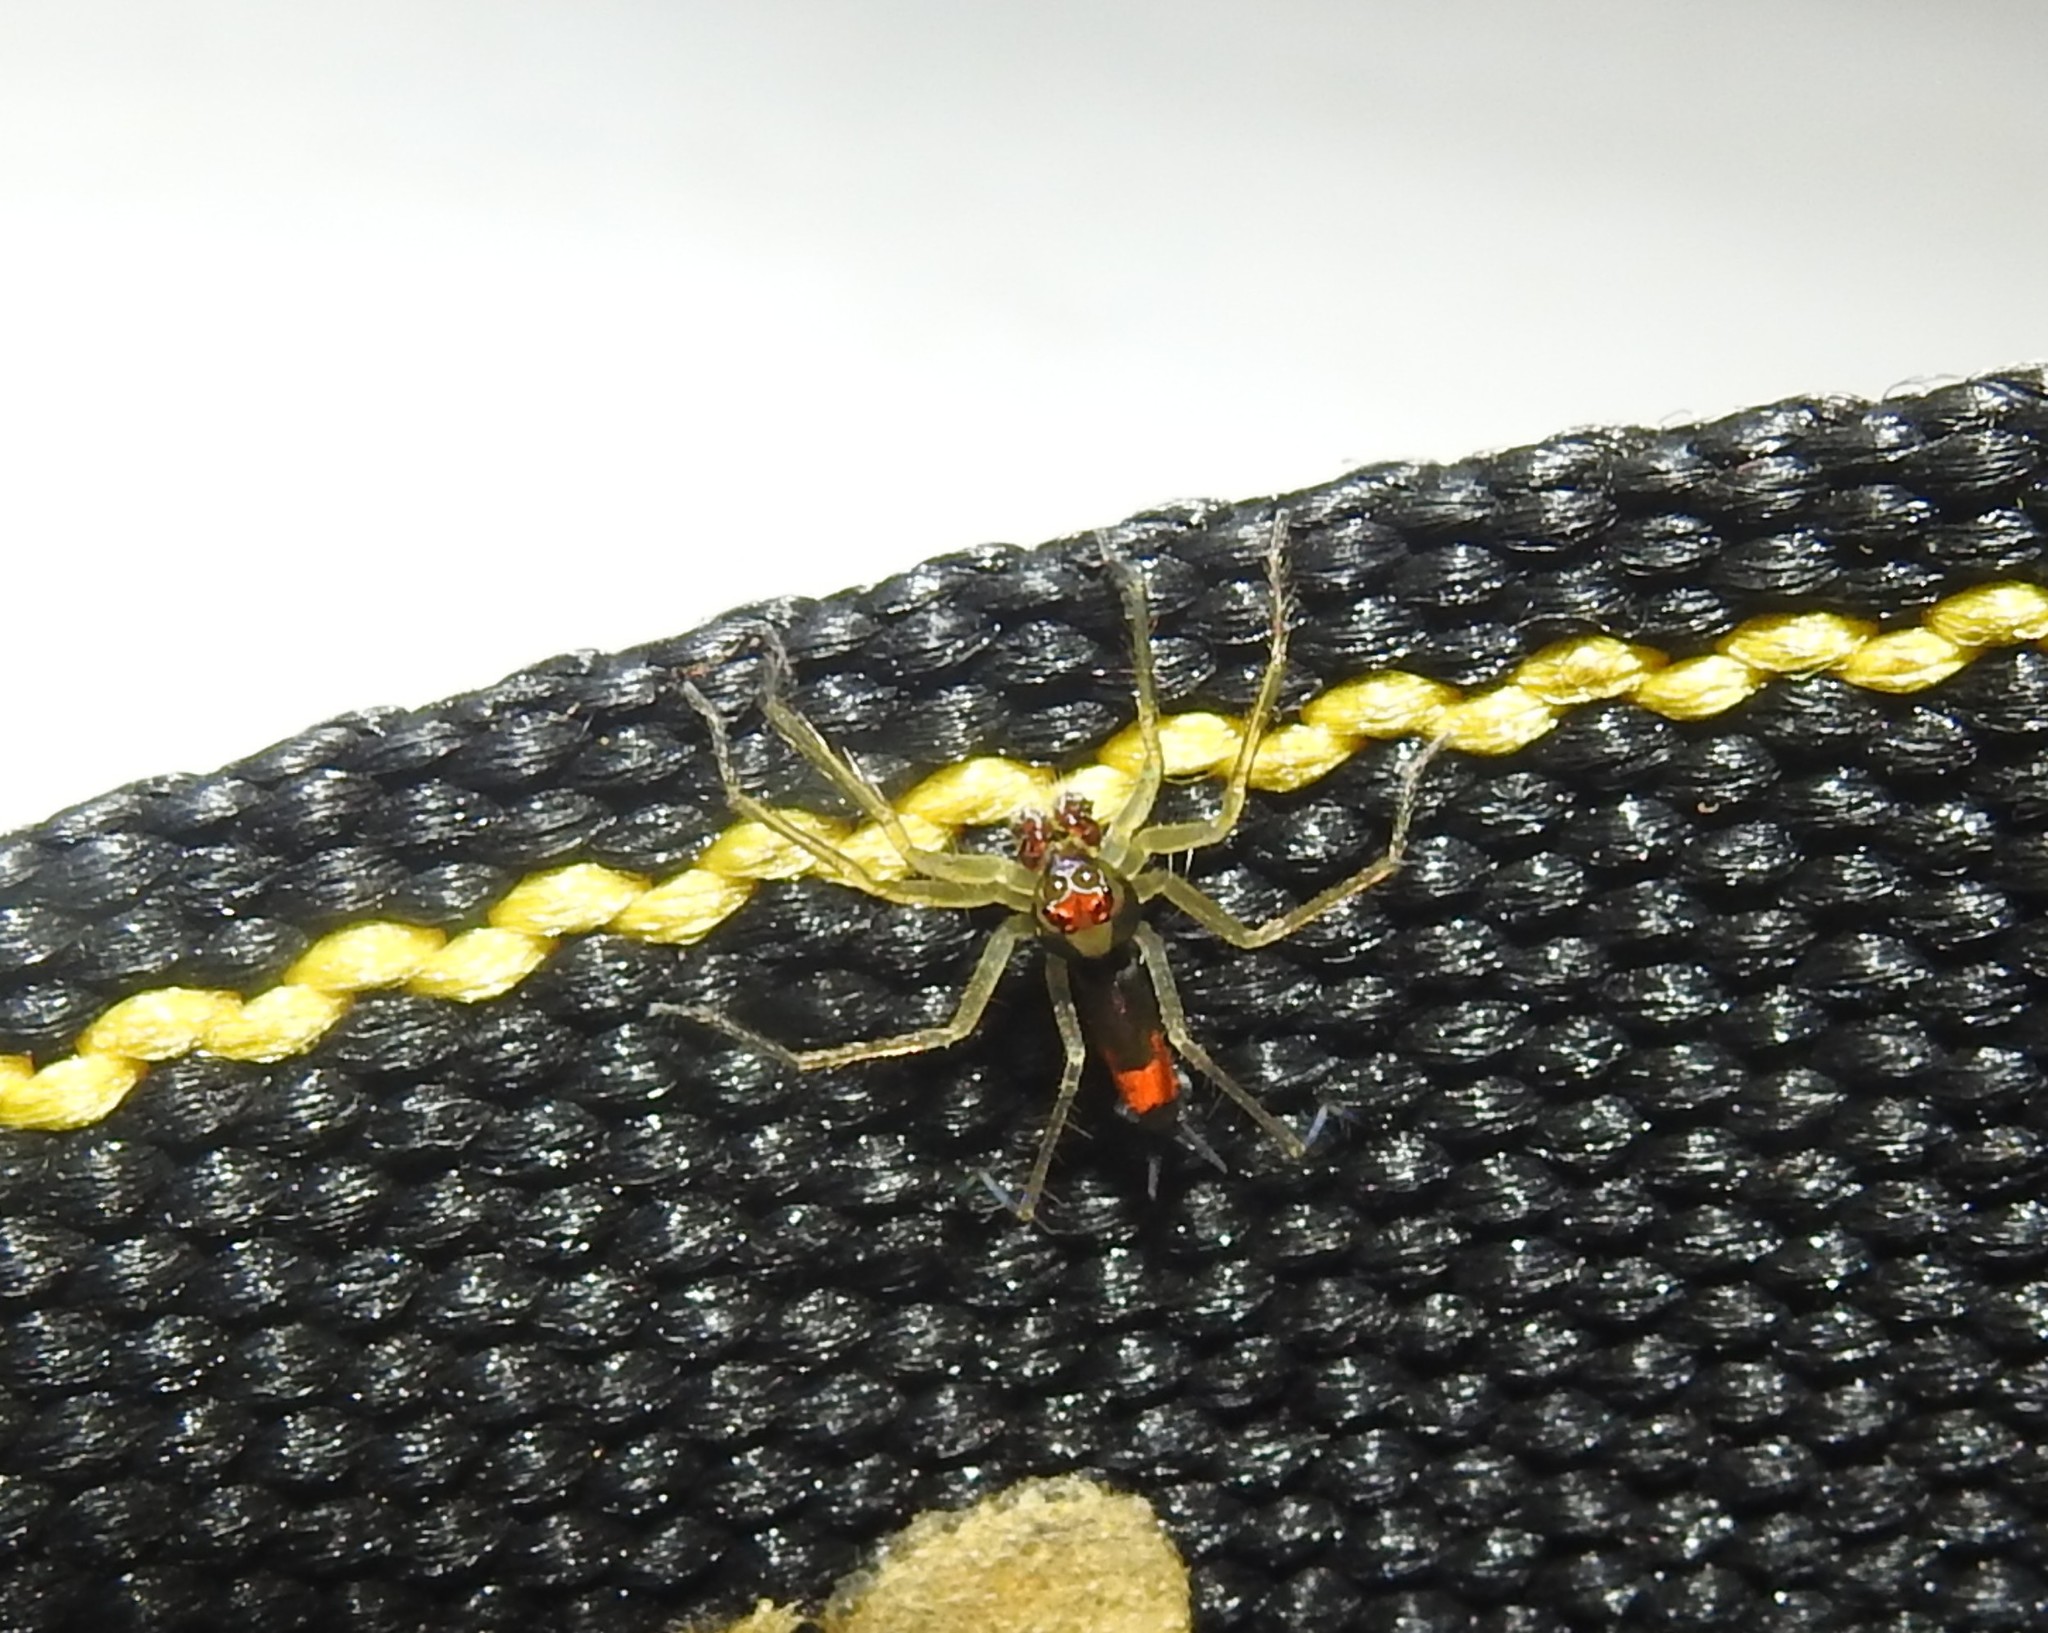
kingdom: Animalia
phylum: Arthropoda
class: Arachnida
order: Araneae
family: Salticidae
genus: Asemonea
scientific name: Asemonea tenuipes
